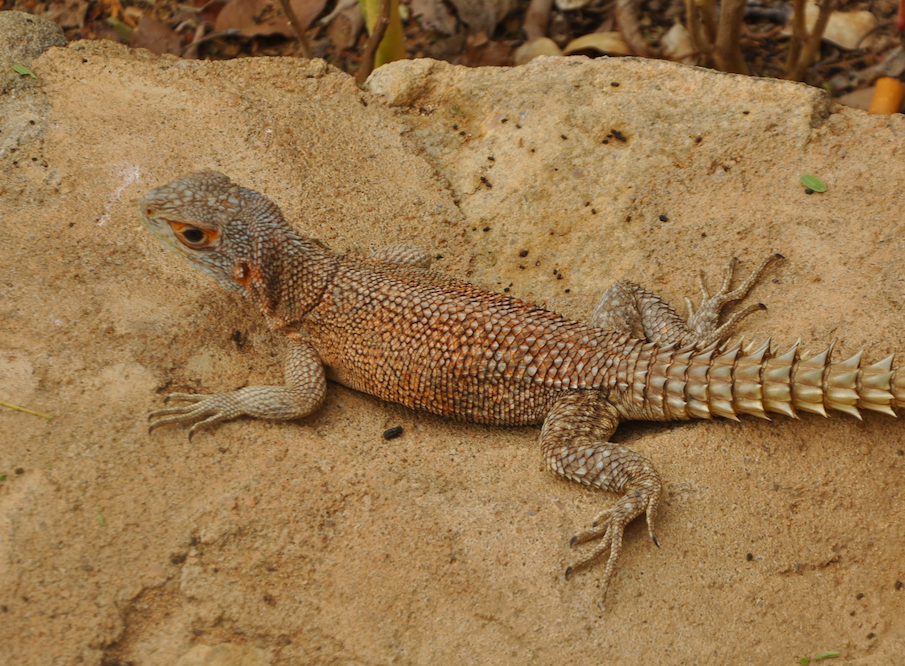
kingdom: Animalia
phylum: Chordata
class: Squamata
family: Opluridae
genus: Oplurus
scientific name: Oplurus cuvieri
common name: Cuvier's madagascar swift
